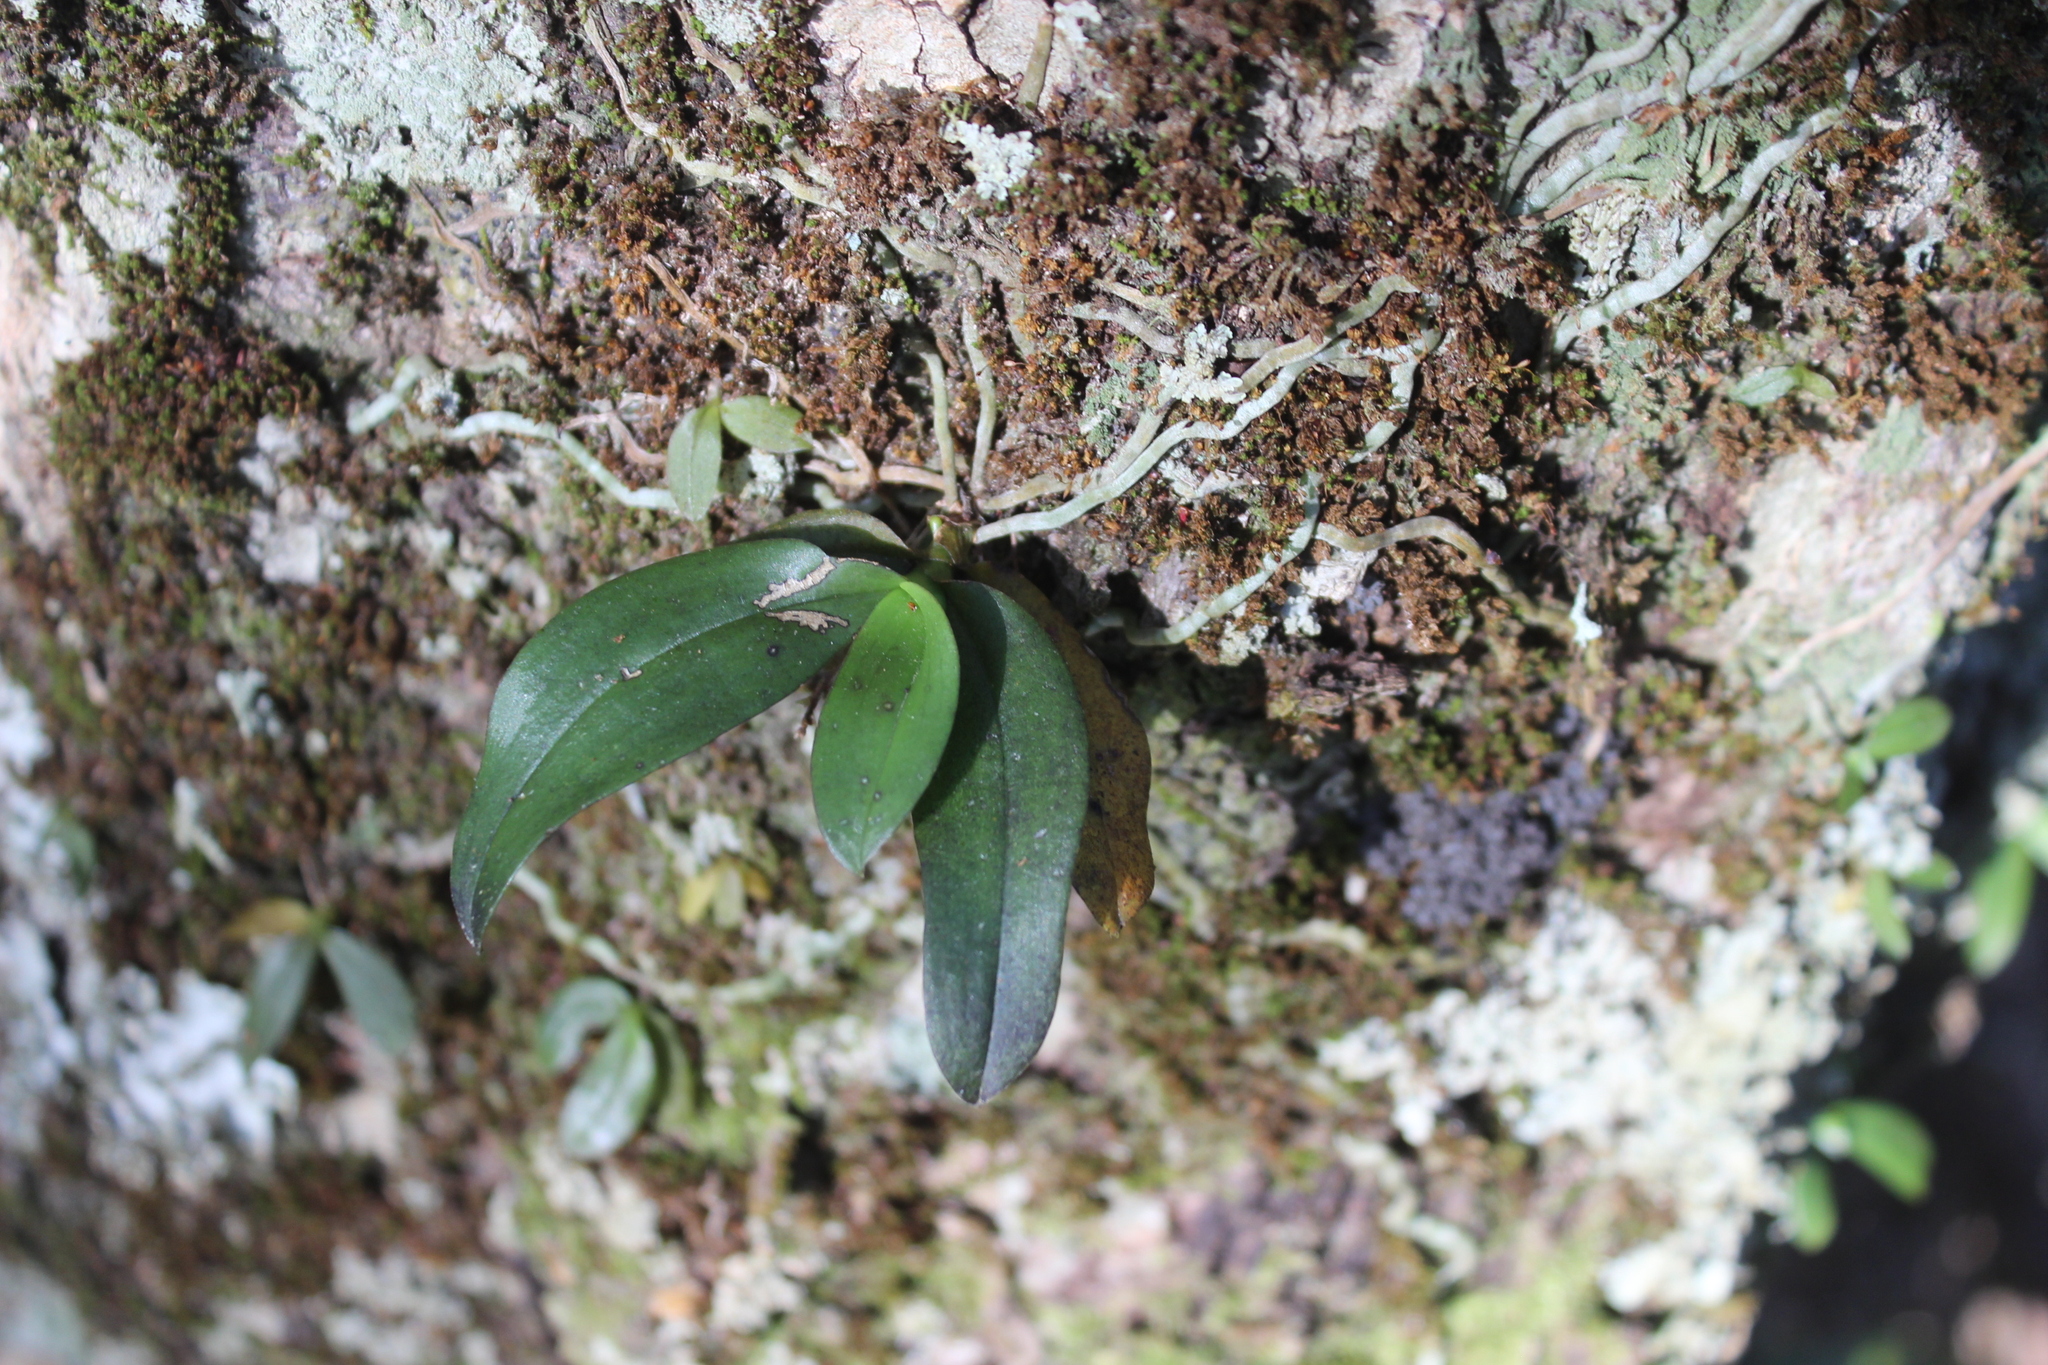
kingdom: Plantae
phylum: Tracheophyta
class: Liliopsida
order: Asparagales
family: Orchidaceae
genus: Drymoanthus
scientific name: Drymoanthus adversus
